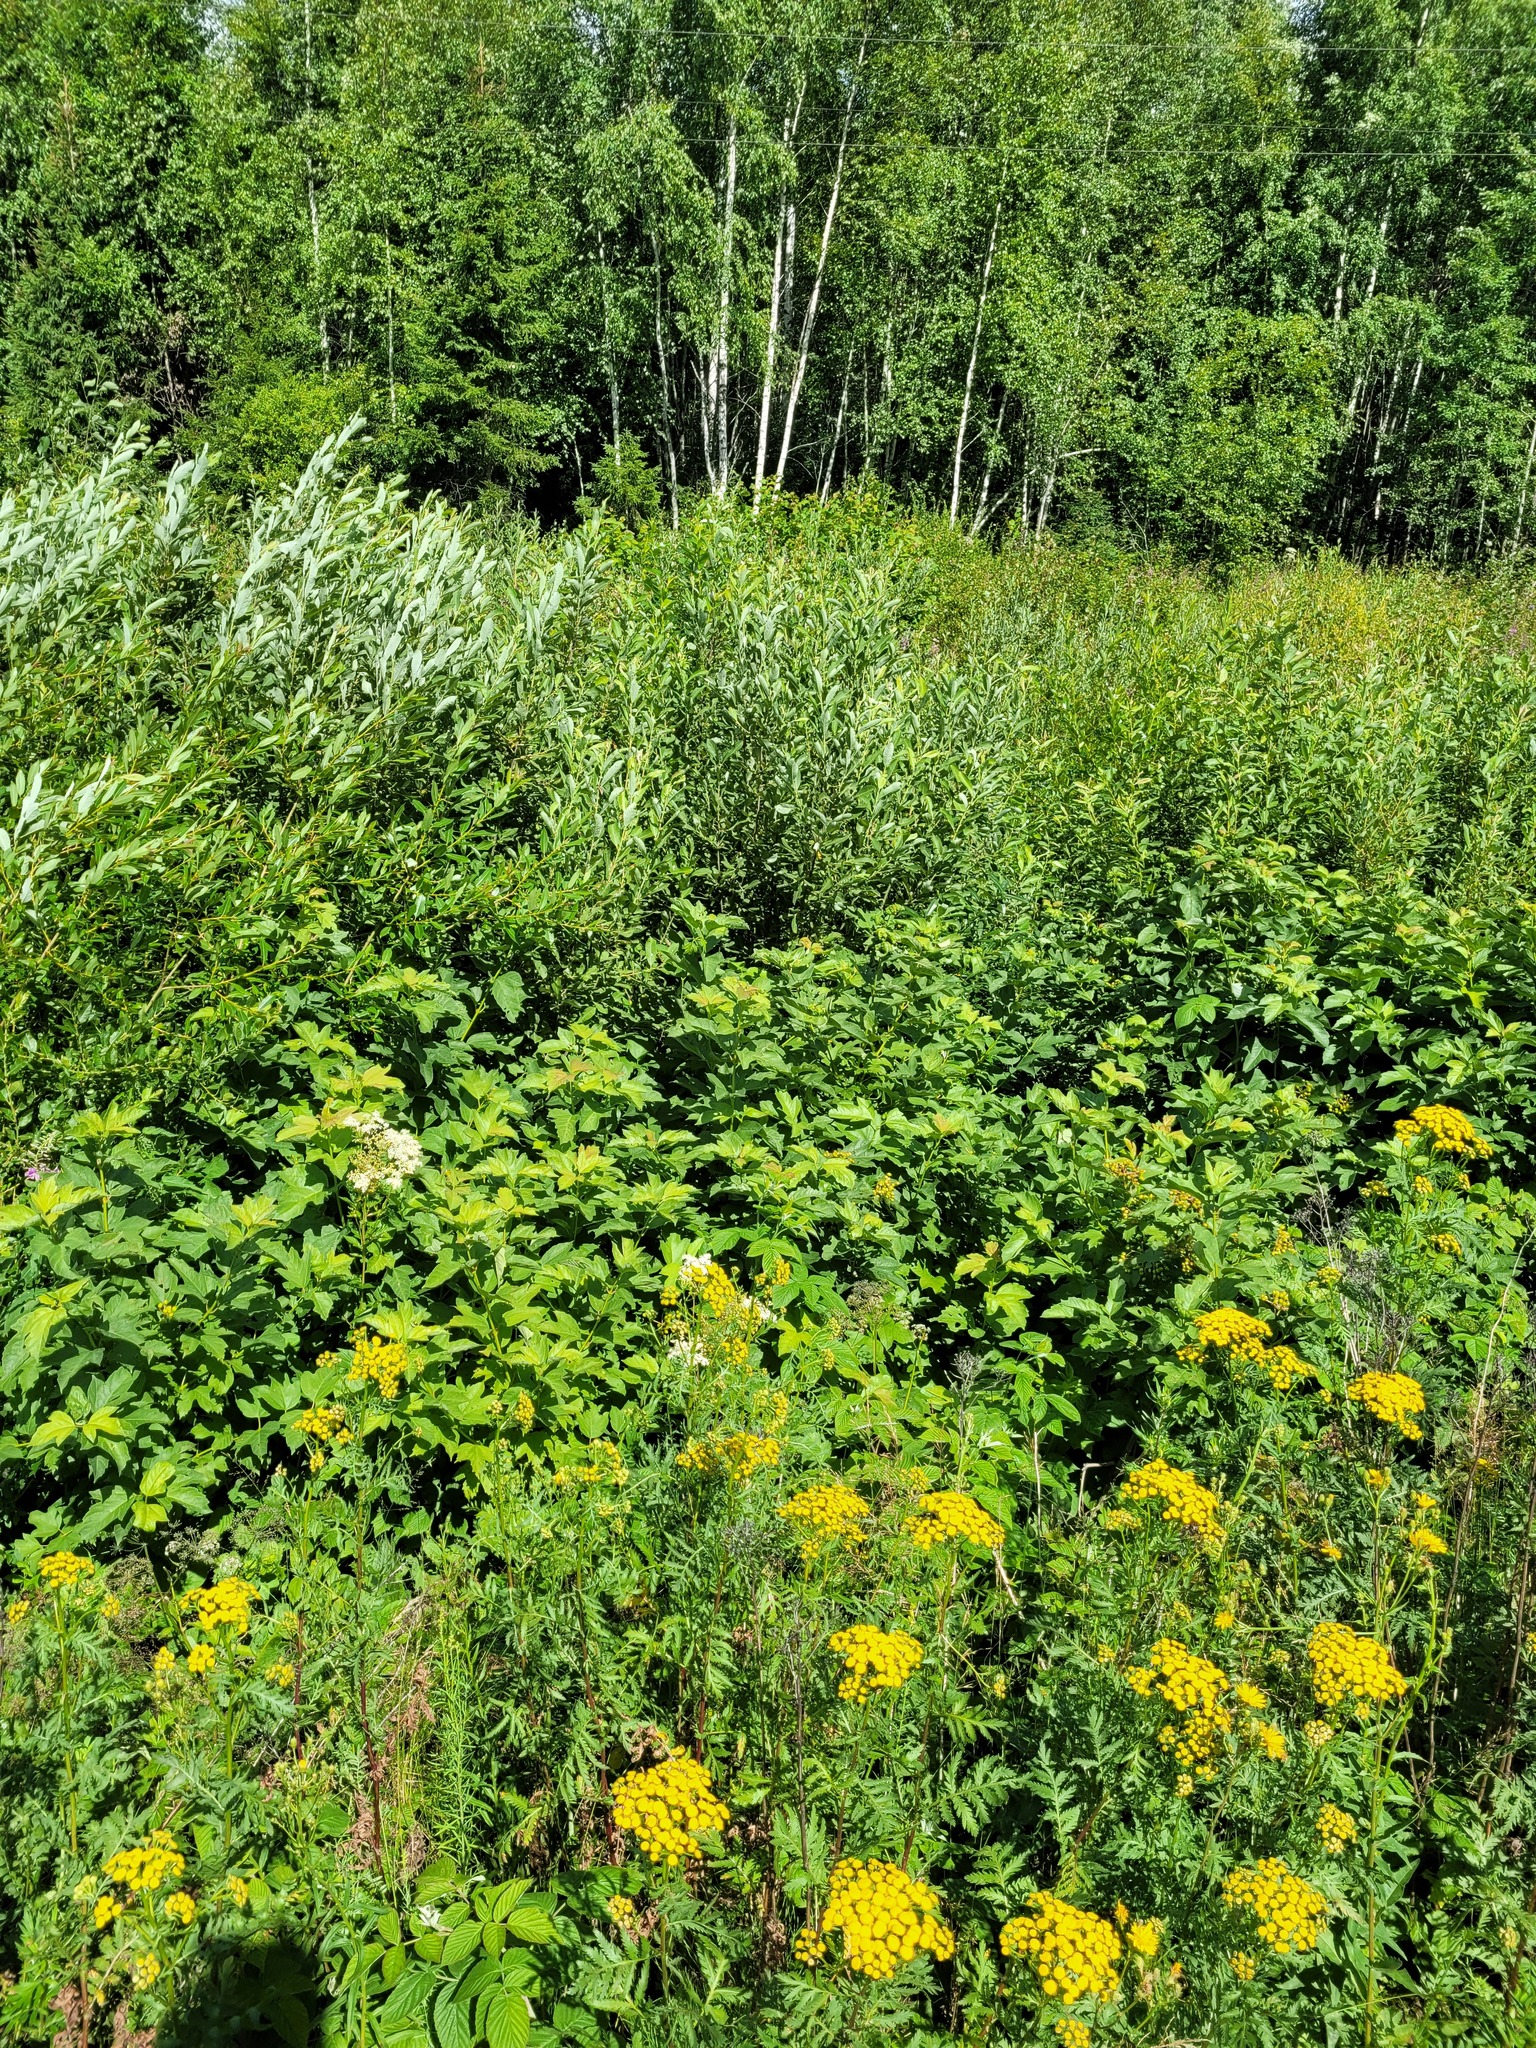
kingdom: Plantae
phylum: Tracheophyta
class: Magnoliopsida
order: Dipsacales
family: Viburnaceae
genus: Viburnum
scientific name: Viburnum opulus
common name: Guelder-rose
